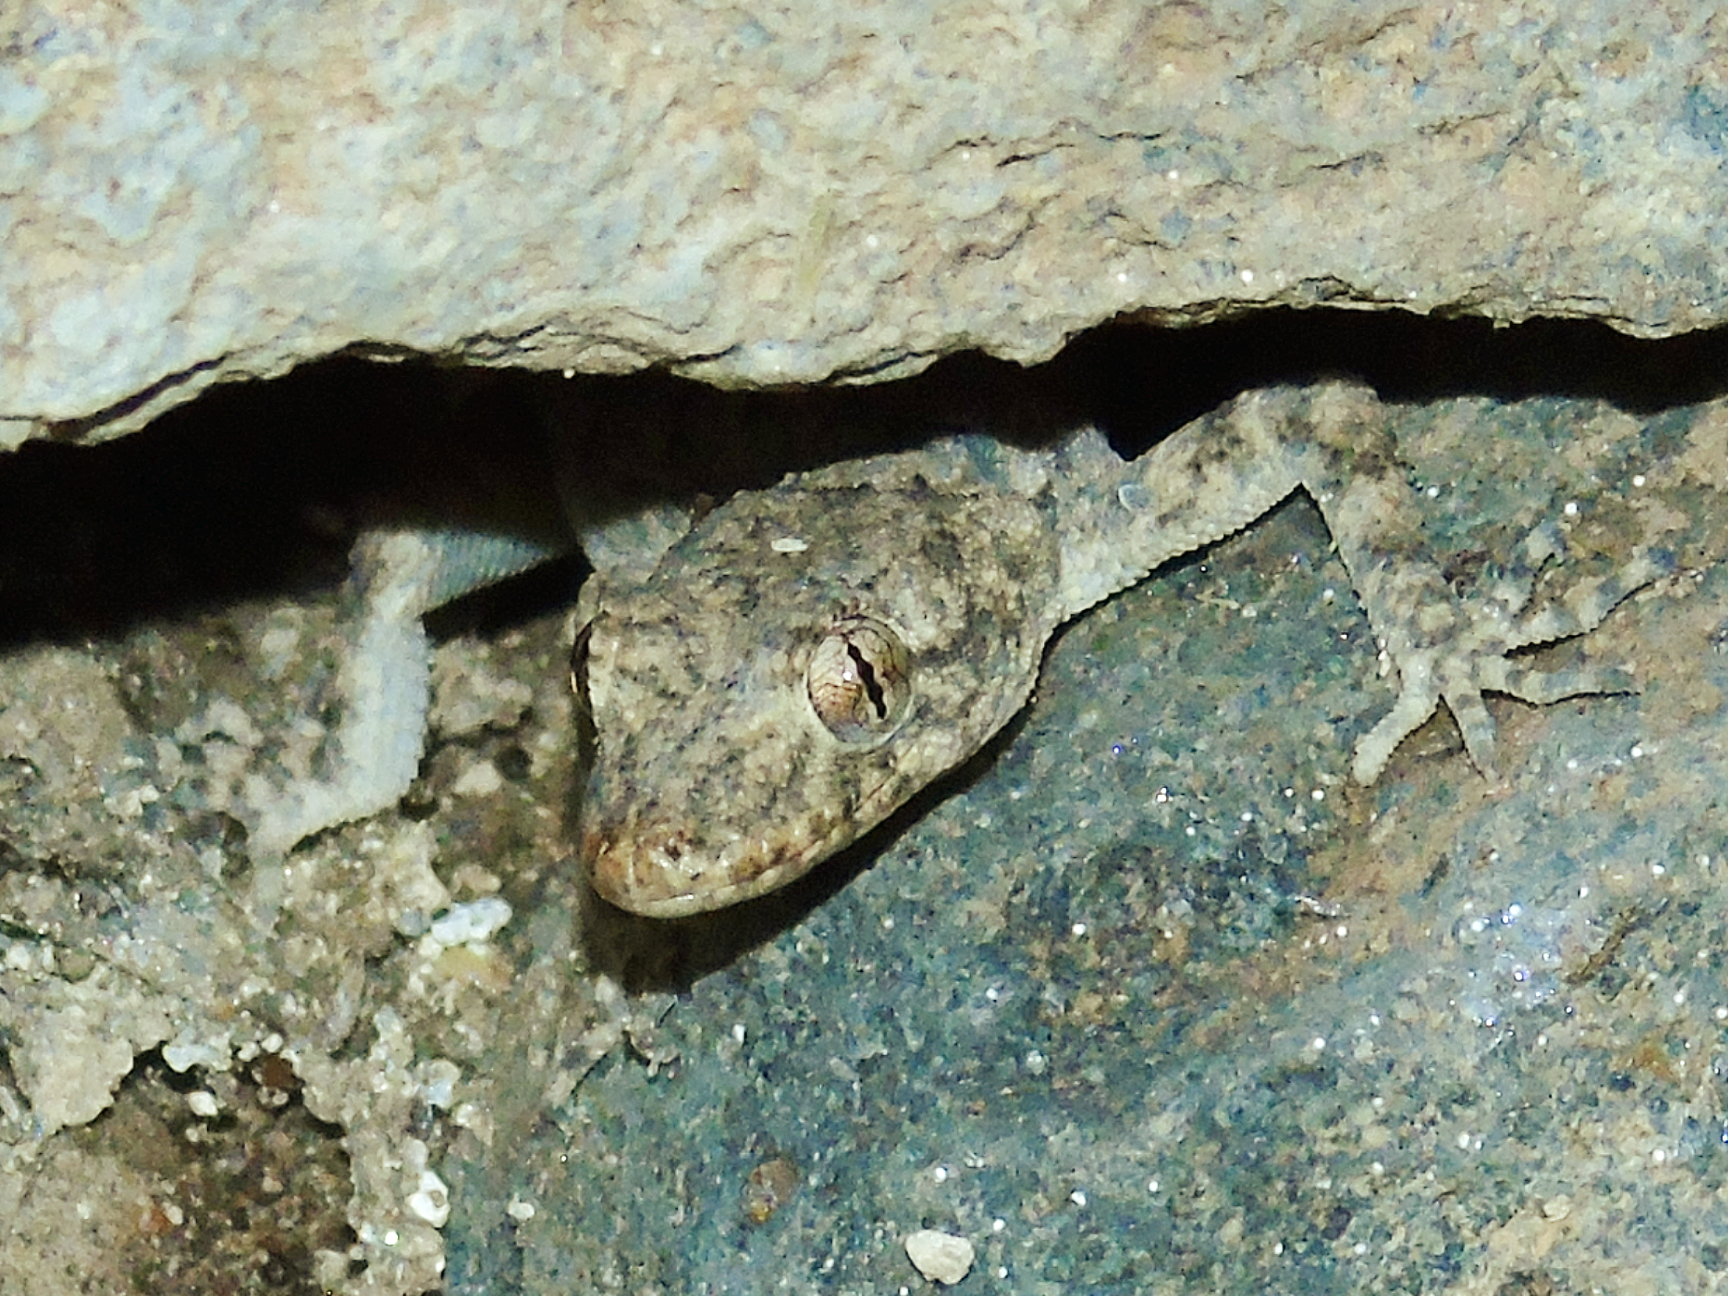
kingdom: Animalia
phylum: Chordata
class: Squamata
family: Gekkonidae
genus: Mediodactylus
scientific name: Mediodactylus heterocercus
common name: Asia minor thin-toed gecko
